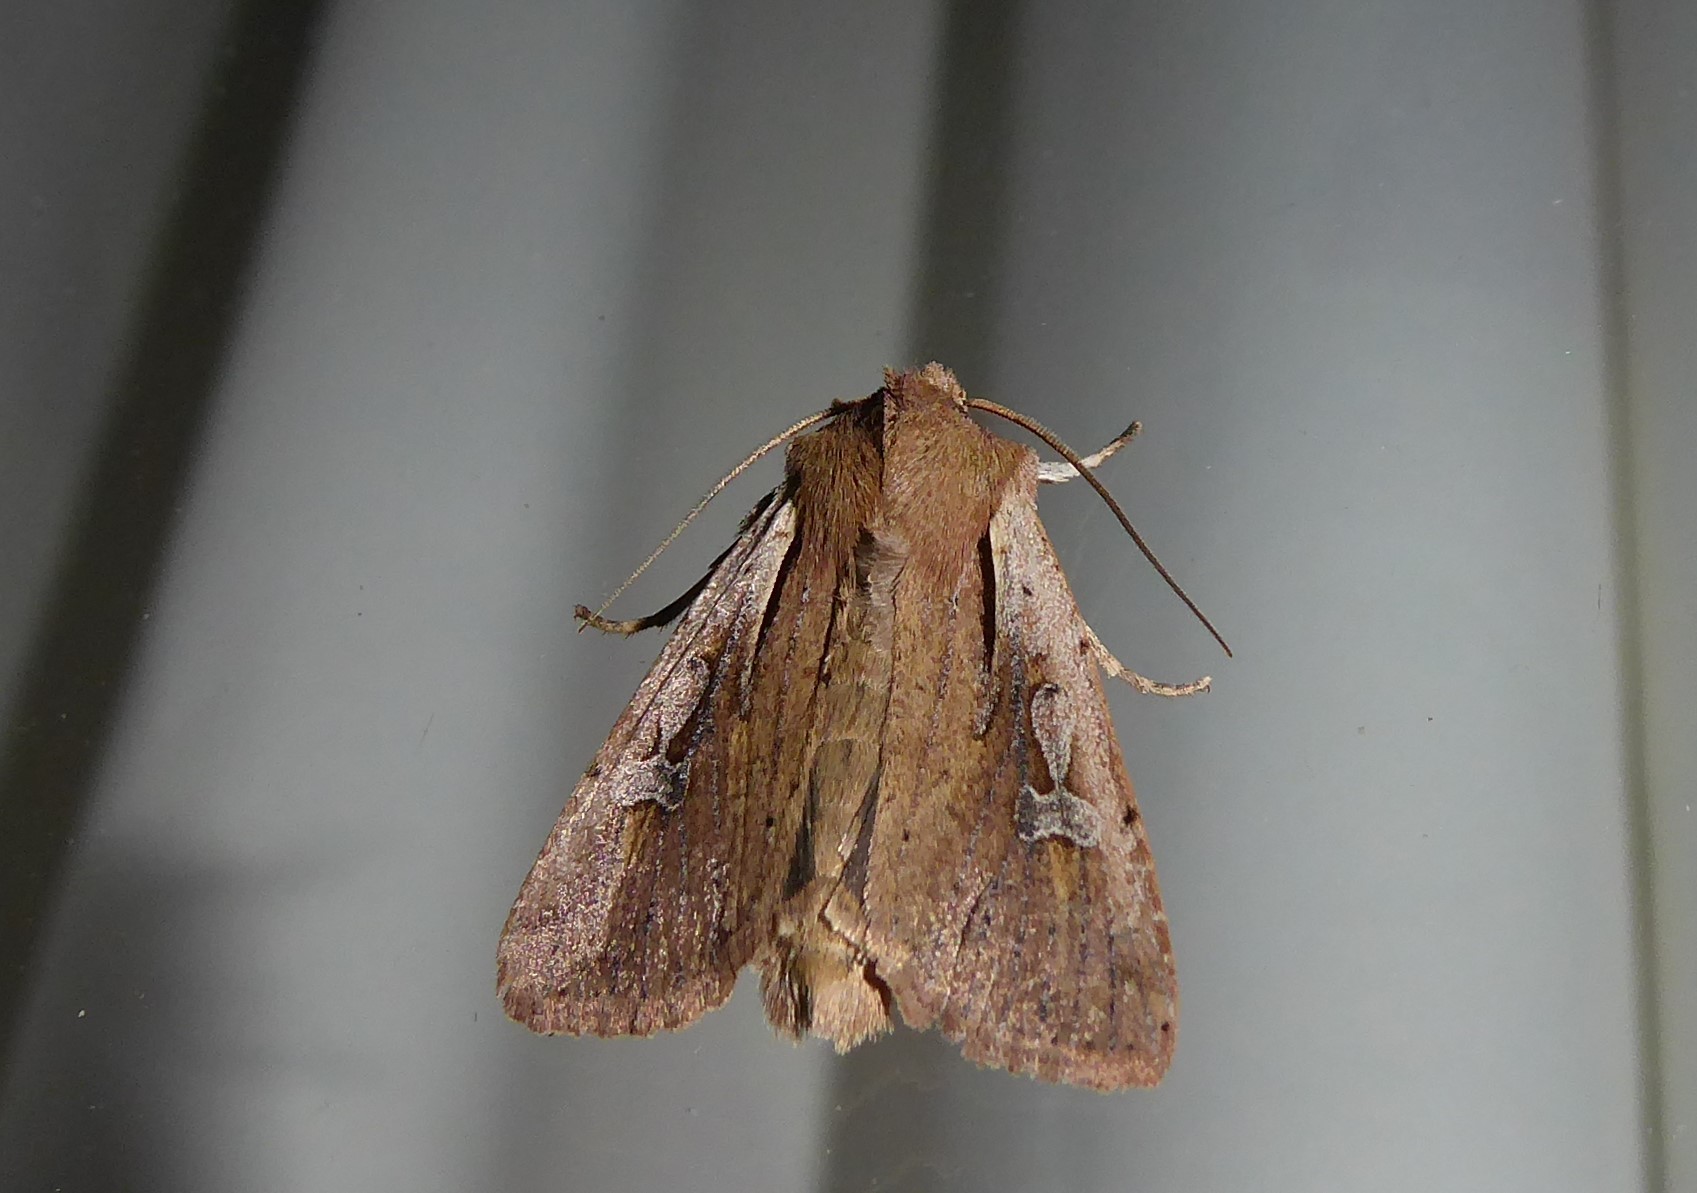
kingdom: Animalia
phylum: Arthropoda
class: Insecta
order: Lepidoptera
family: Noctuidae
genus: Ichneutica
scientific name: Ichneutica atristriga
